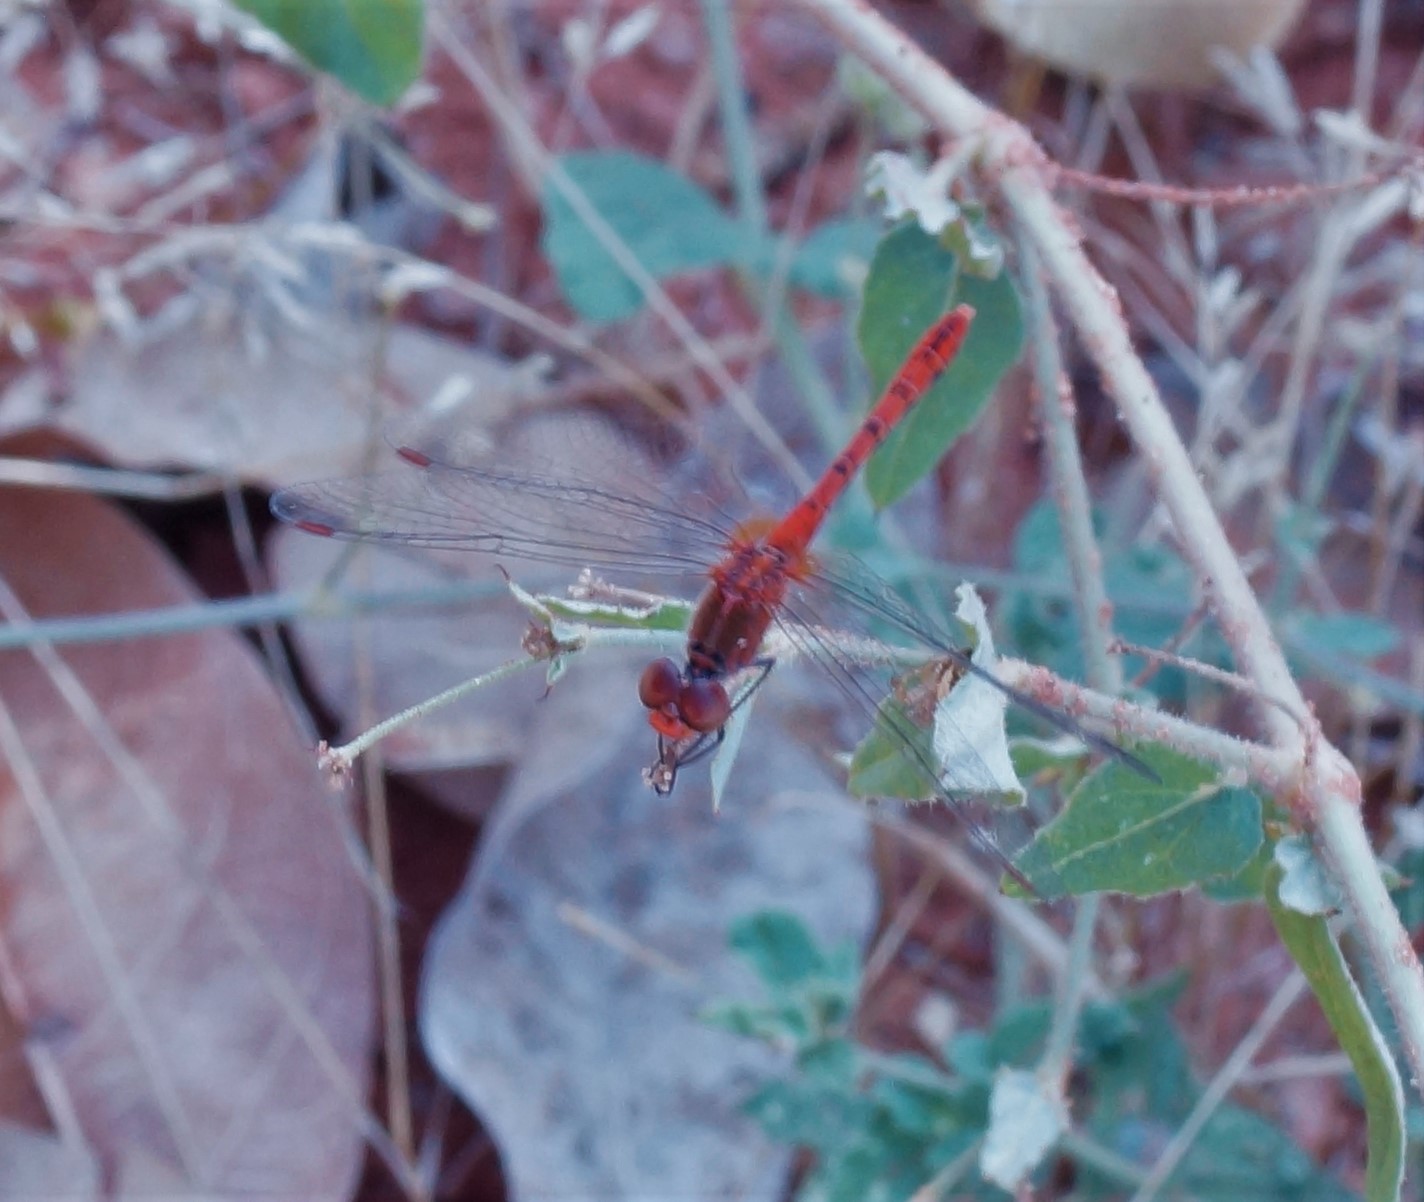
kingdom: Animalia
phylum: Arthropoda
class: Insecta
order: Odonata
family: Libellulidae
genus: Diplacodes
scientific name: Diplacodes bipunctata
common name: Red percher dragonfly
